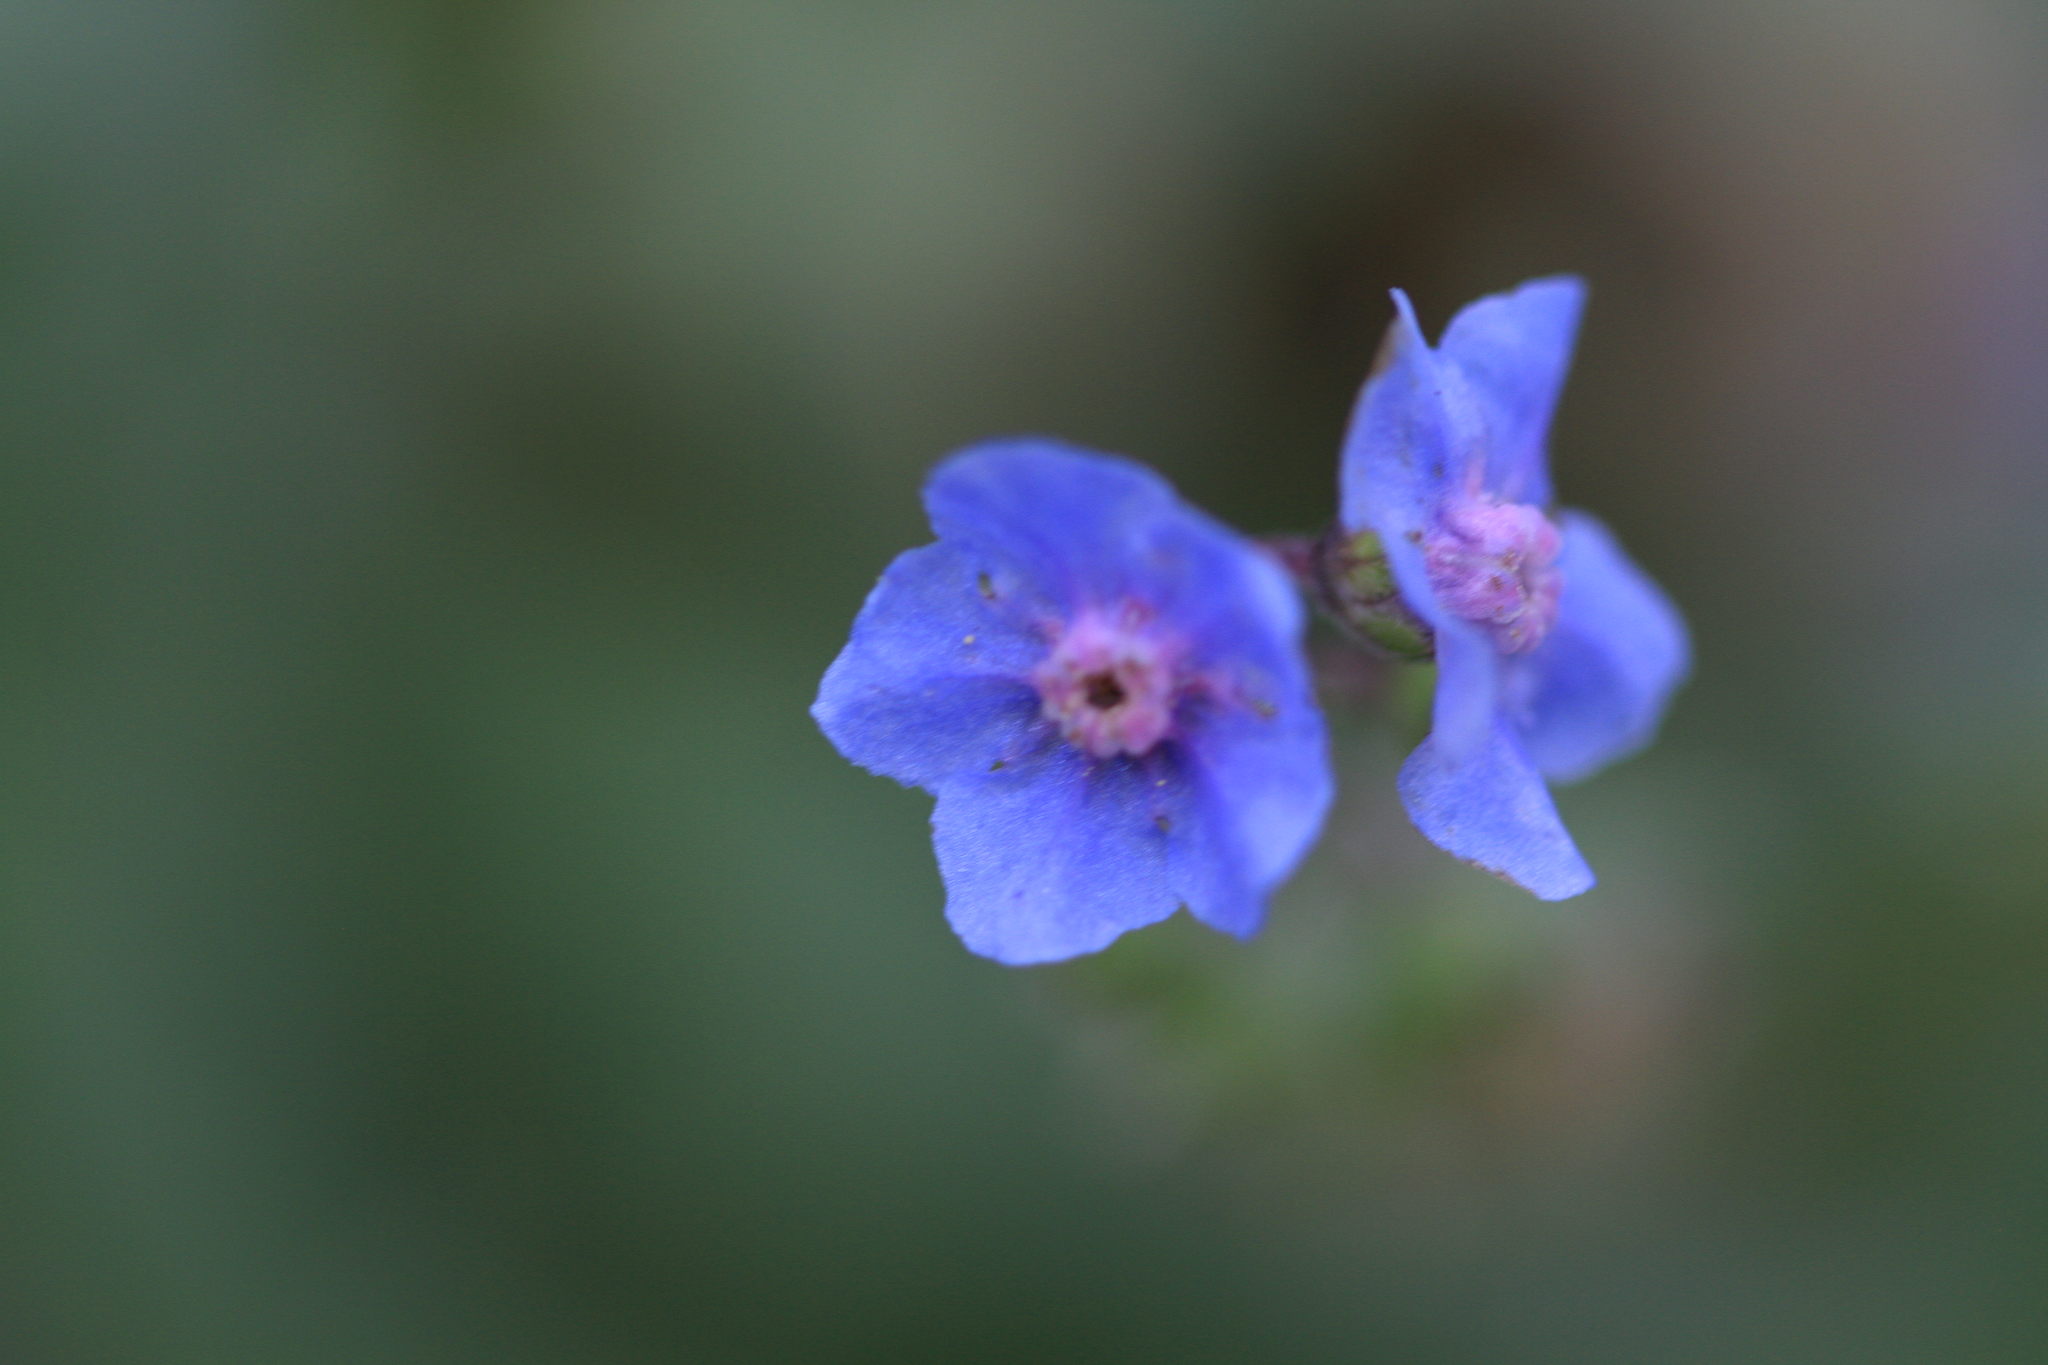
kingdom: Plantae
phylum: Tracheophyta
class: Magnoliopsida
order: Boraginales
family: Boraginaceae
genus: Cynoglossum
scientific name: Cynoglossum amabile
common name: Chinese hound's tongue
